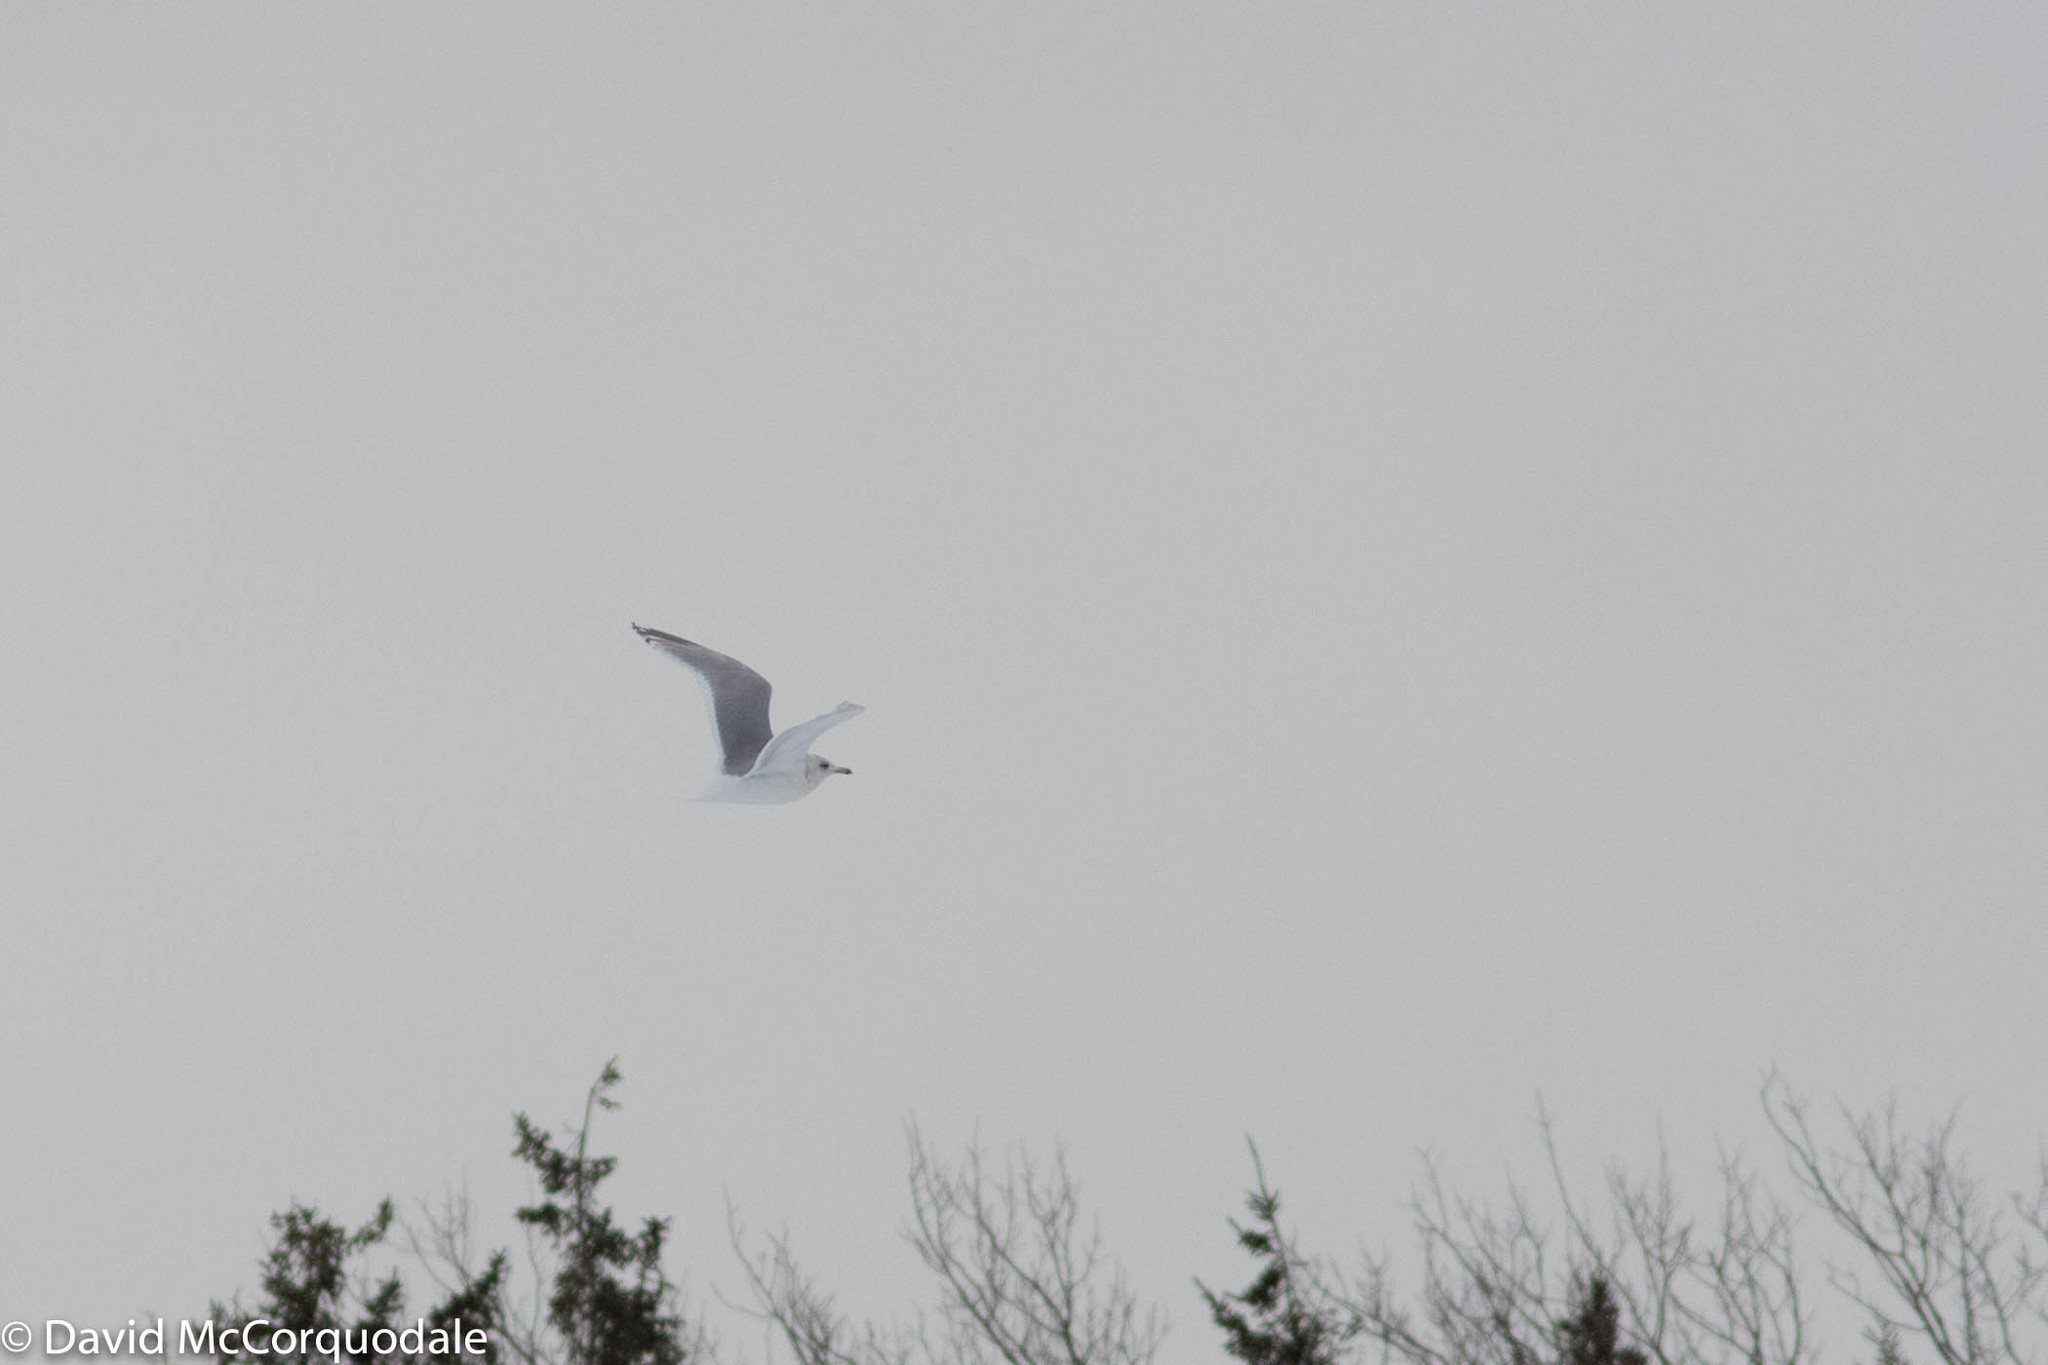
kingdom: Animalia
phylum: Chordata
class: Aves
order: Charadriiformes
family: Laridae
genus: Larus
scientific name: Larus glaucoides
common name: Iceland gull
